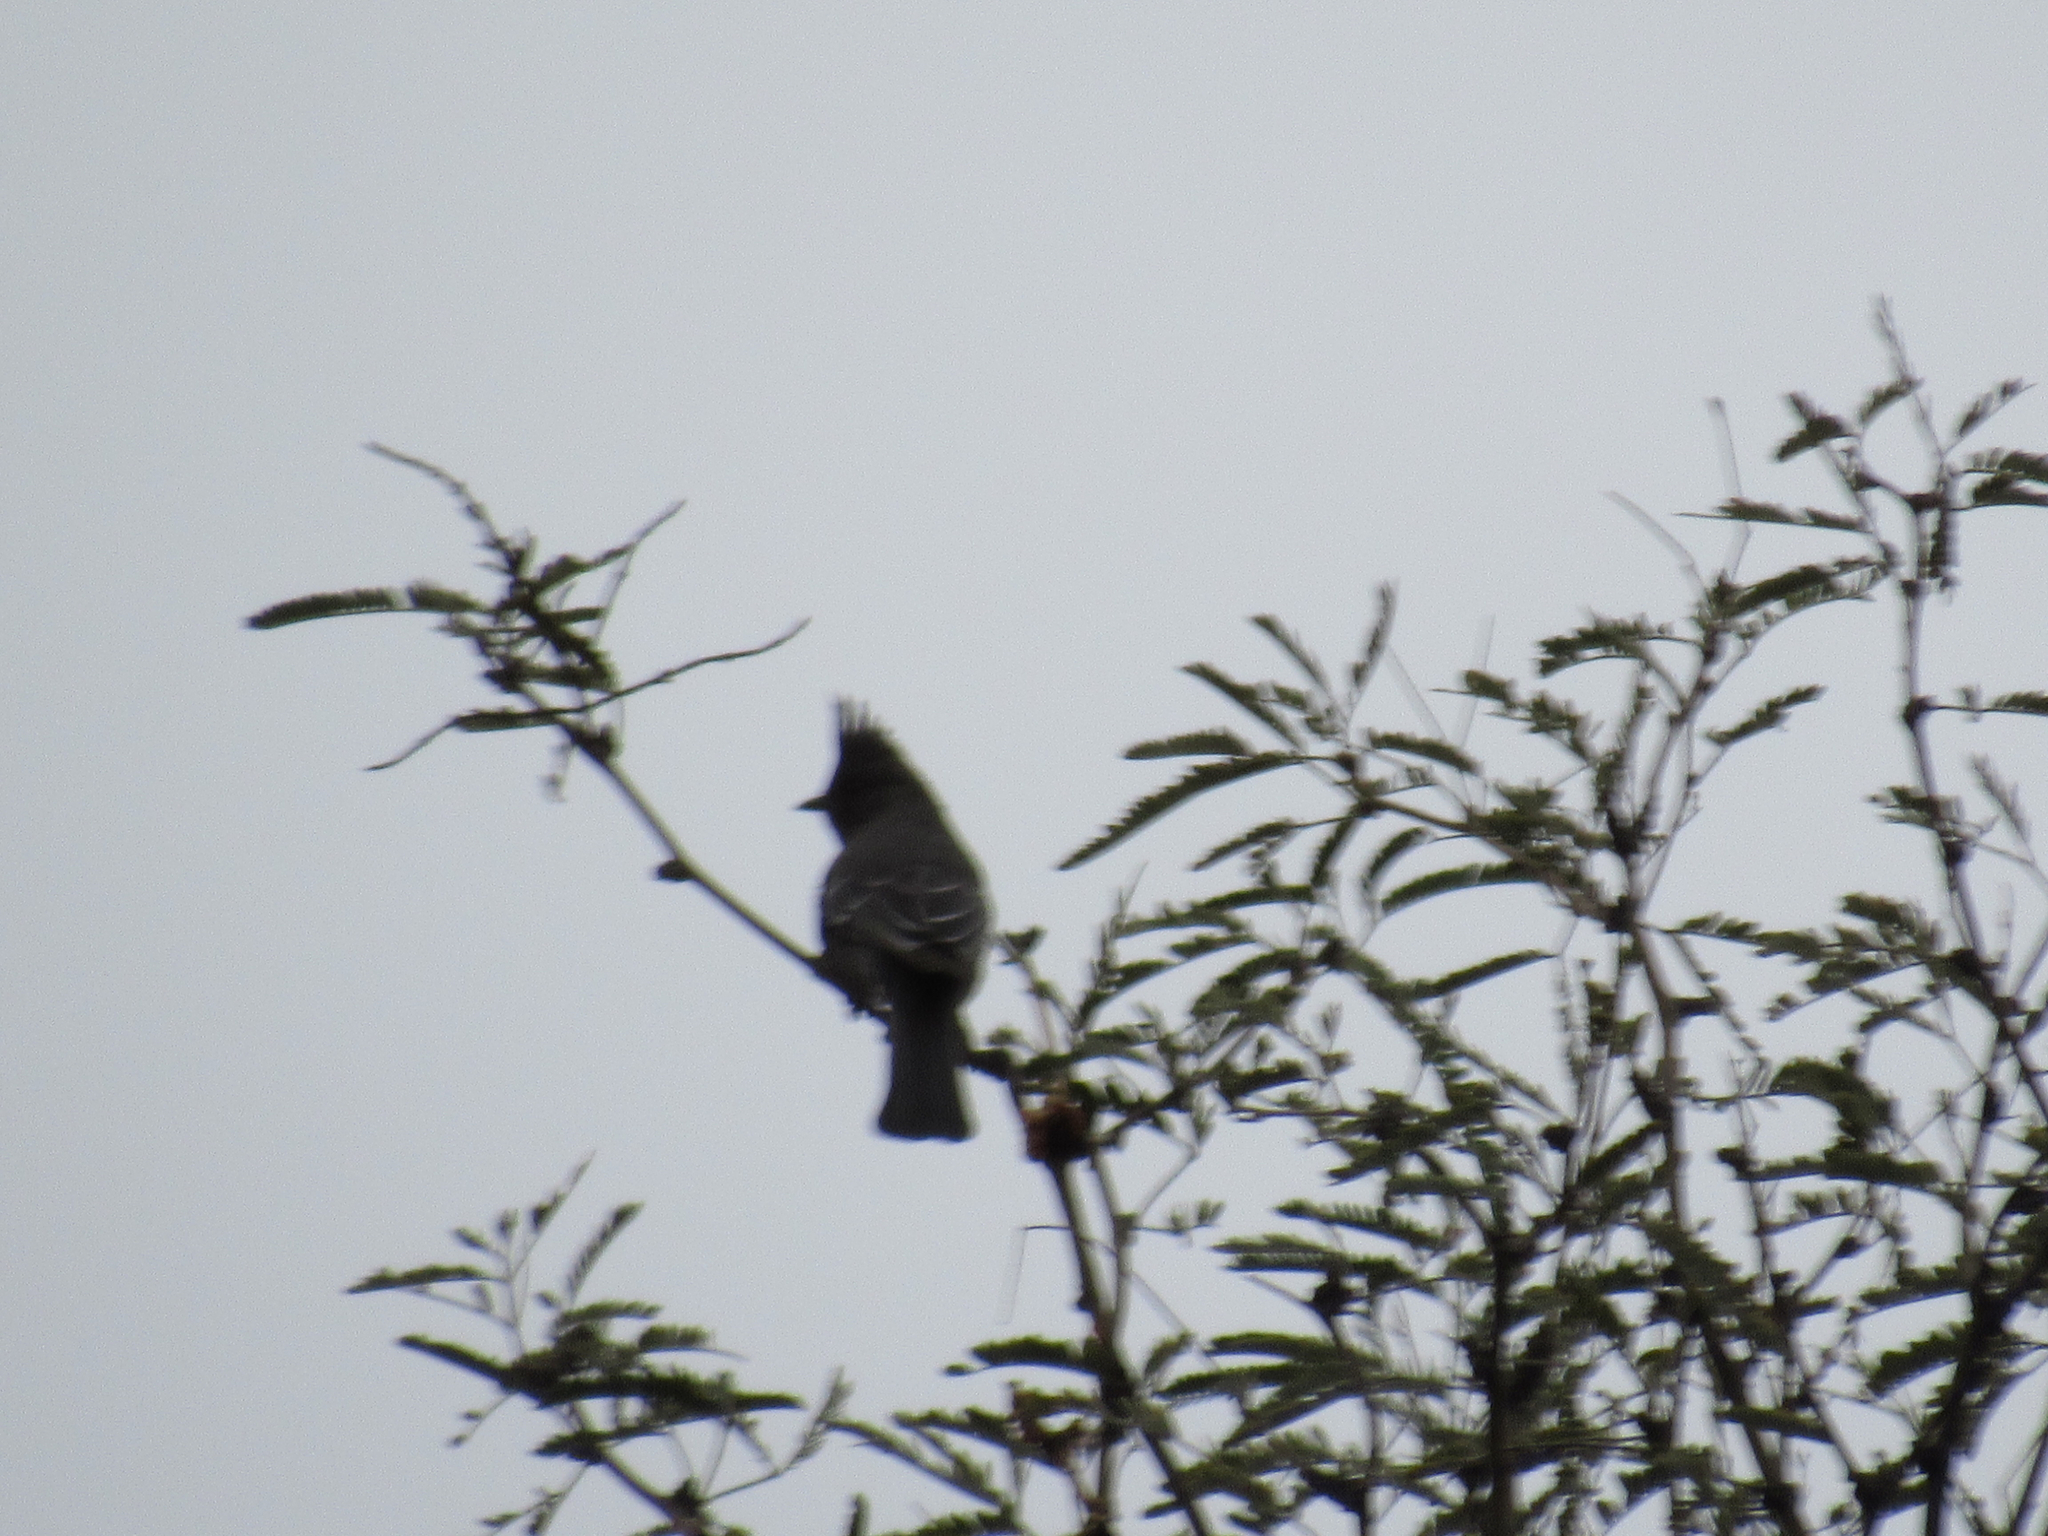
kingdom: Animalia
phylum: Chordata
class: Aves
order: Passeriformes
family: Ptilogonatidae
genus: Phainopepla
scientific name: Phainopepla nitens
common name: Phainopepla
